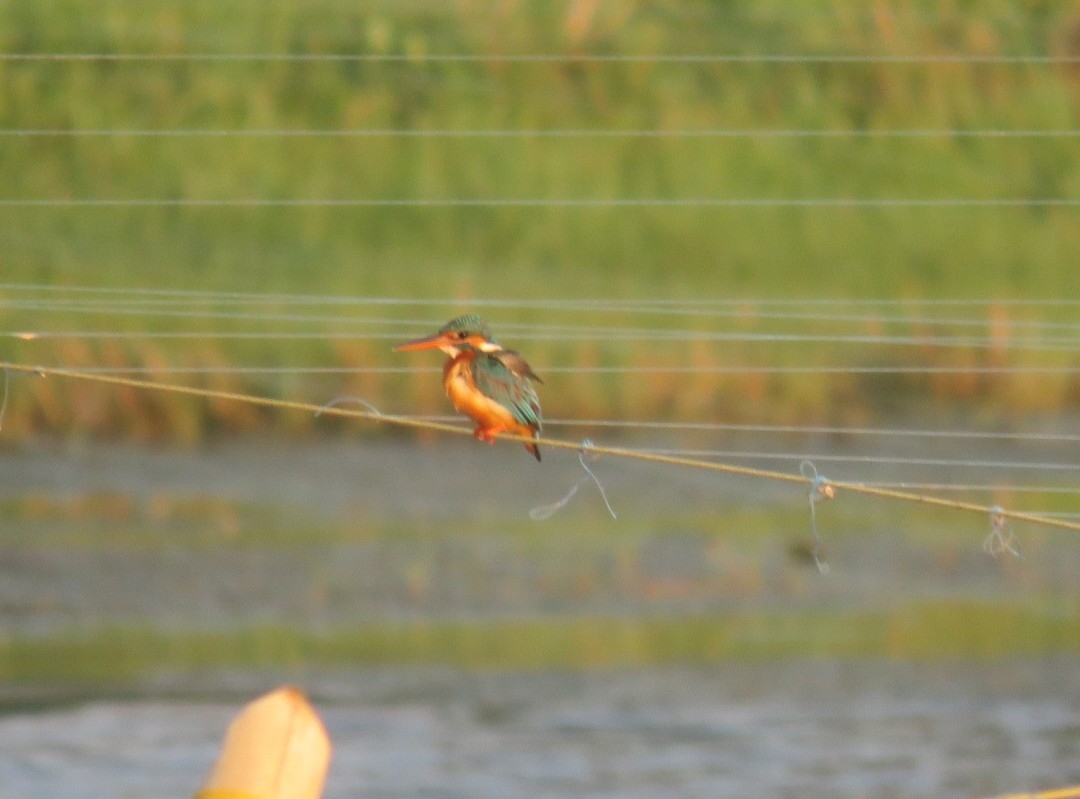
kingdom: Animalia
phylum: Chordata
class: Aves
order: Coraciiformes
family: Alcedinidae
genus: Alcedo
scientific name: Alcedo atthis
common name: Common kingfisher
